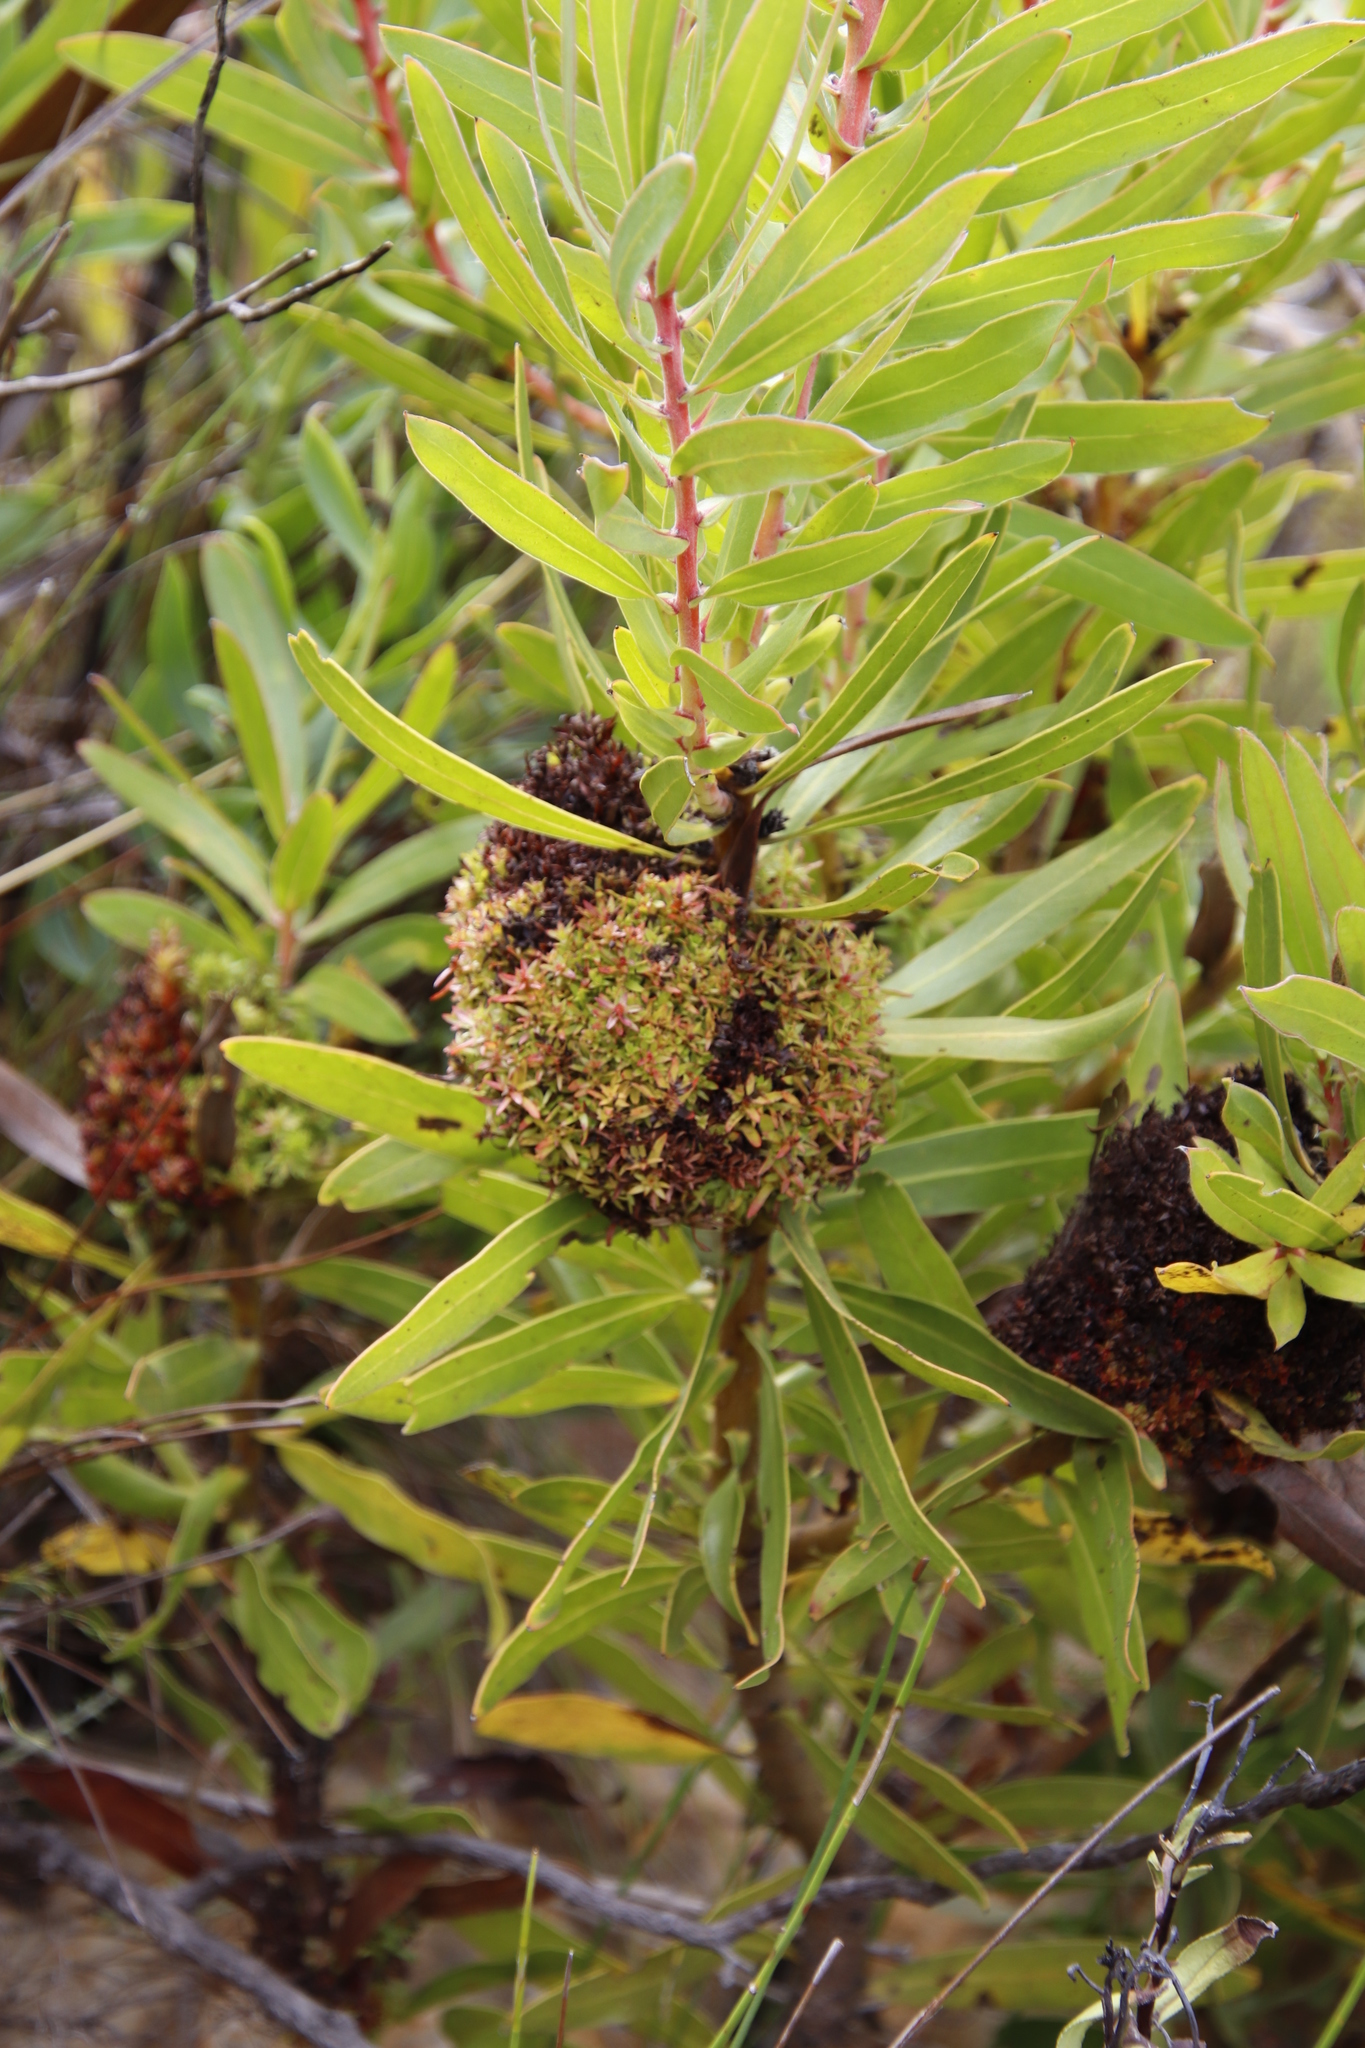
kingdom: Bacteria
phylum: Firmicutes
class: Bacilli
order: Acholeplasmatales
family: Acholeplasmataceae
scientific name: Acholeplasmataceae
